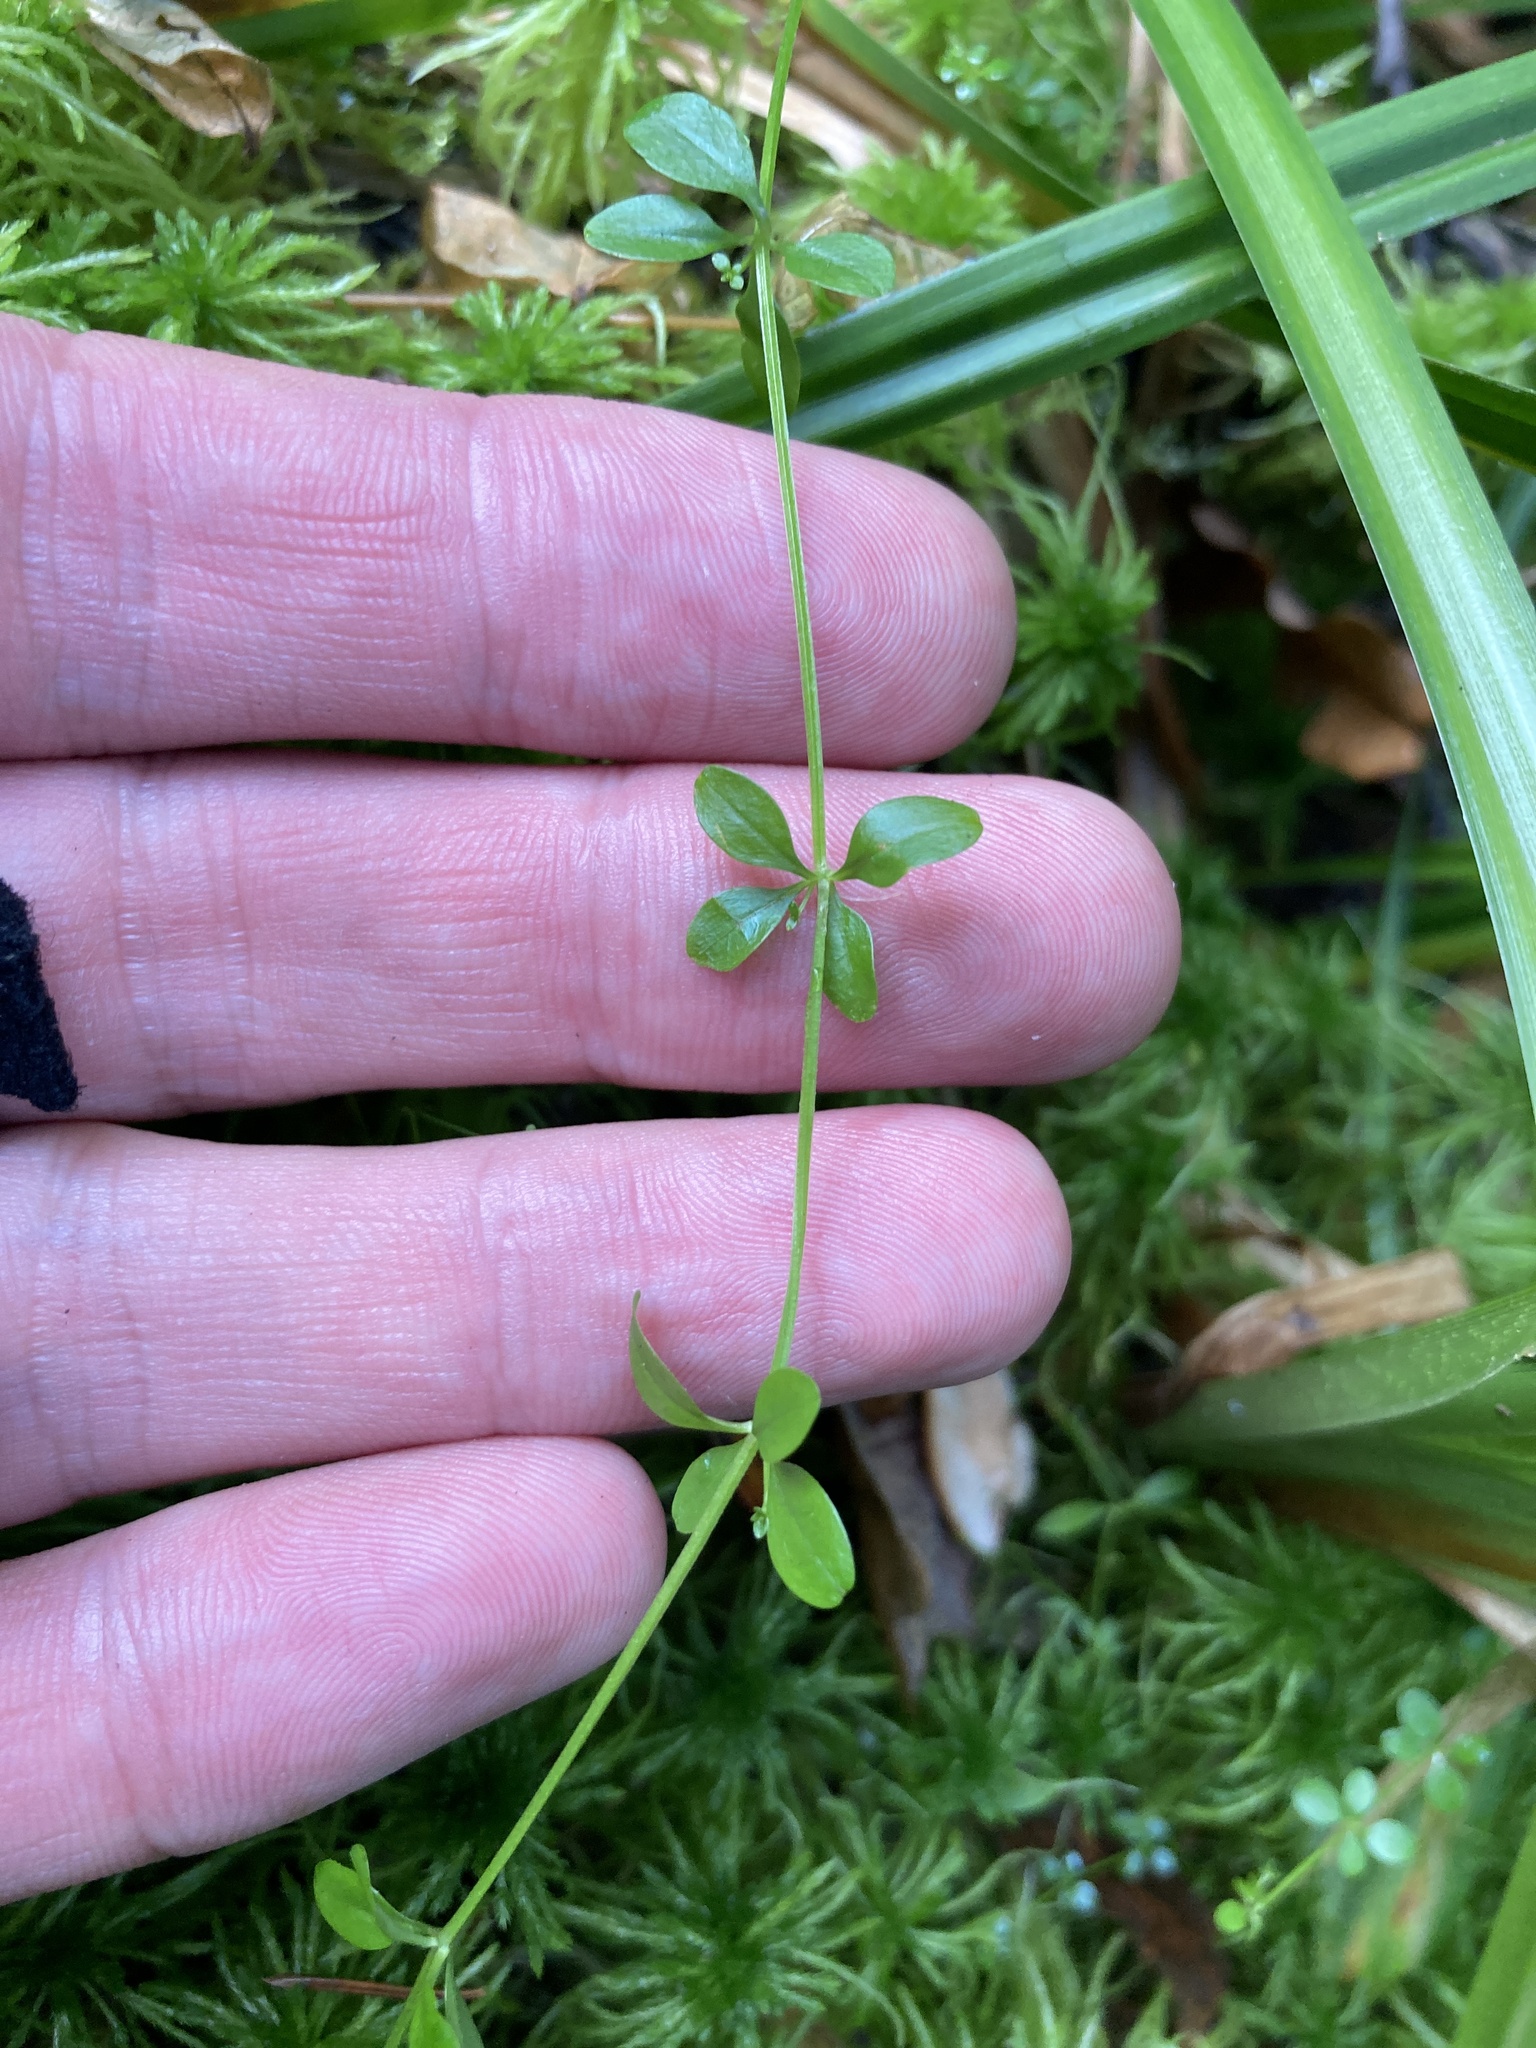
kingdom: Plantae
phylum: Tracheophyta
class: Magnoliopsida
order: Gentianales
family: Rubiaceae
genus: Galium
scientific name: Galium palustre
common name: Common marsh-bedstraw
